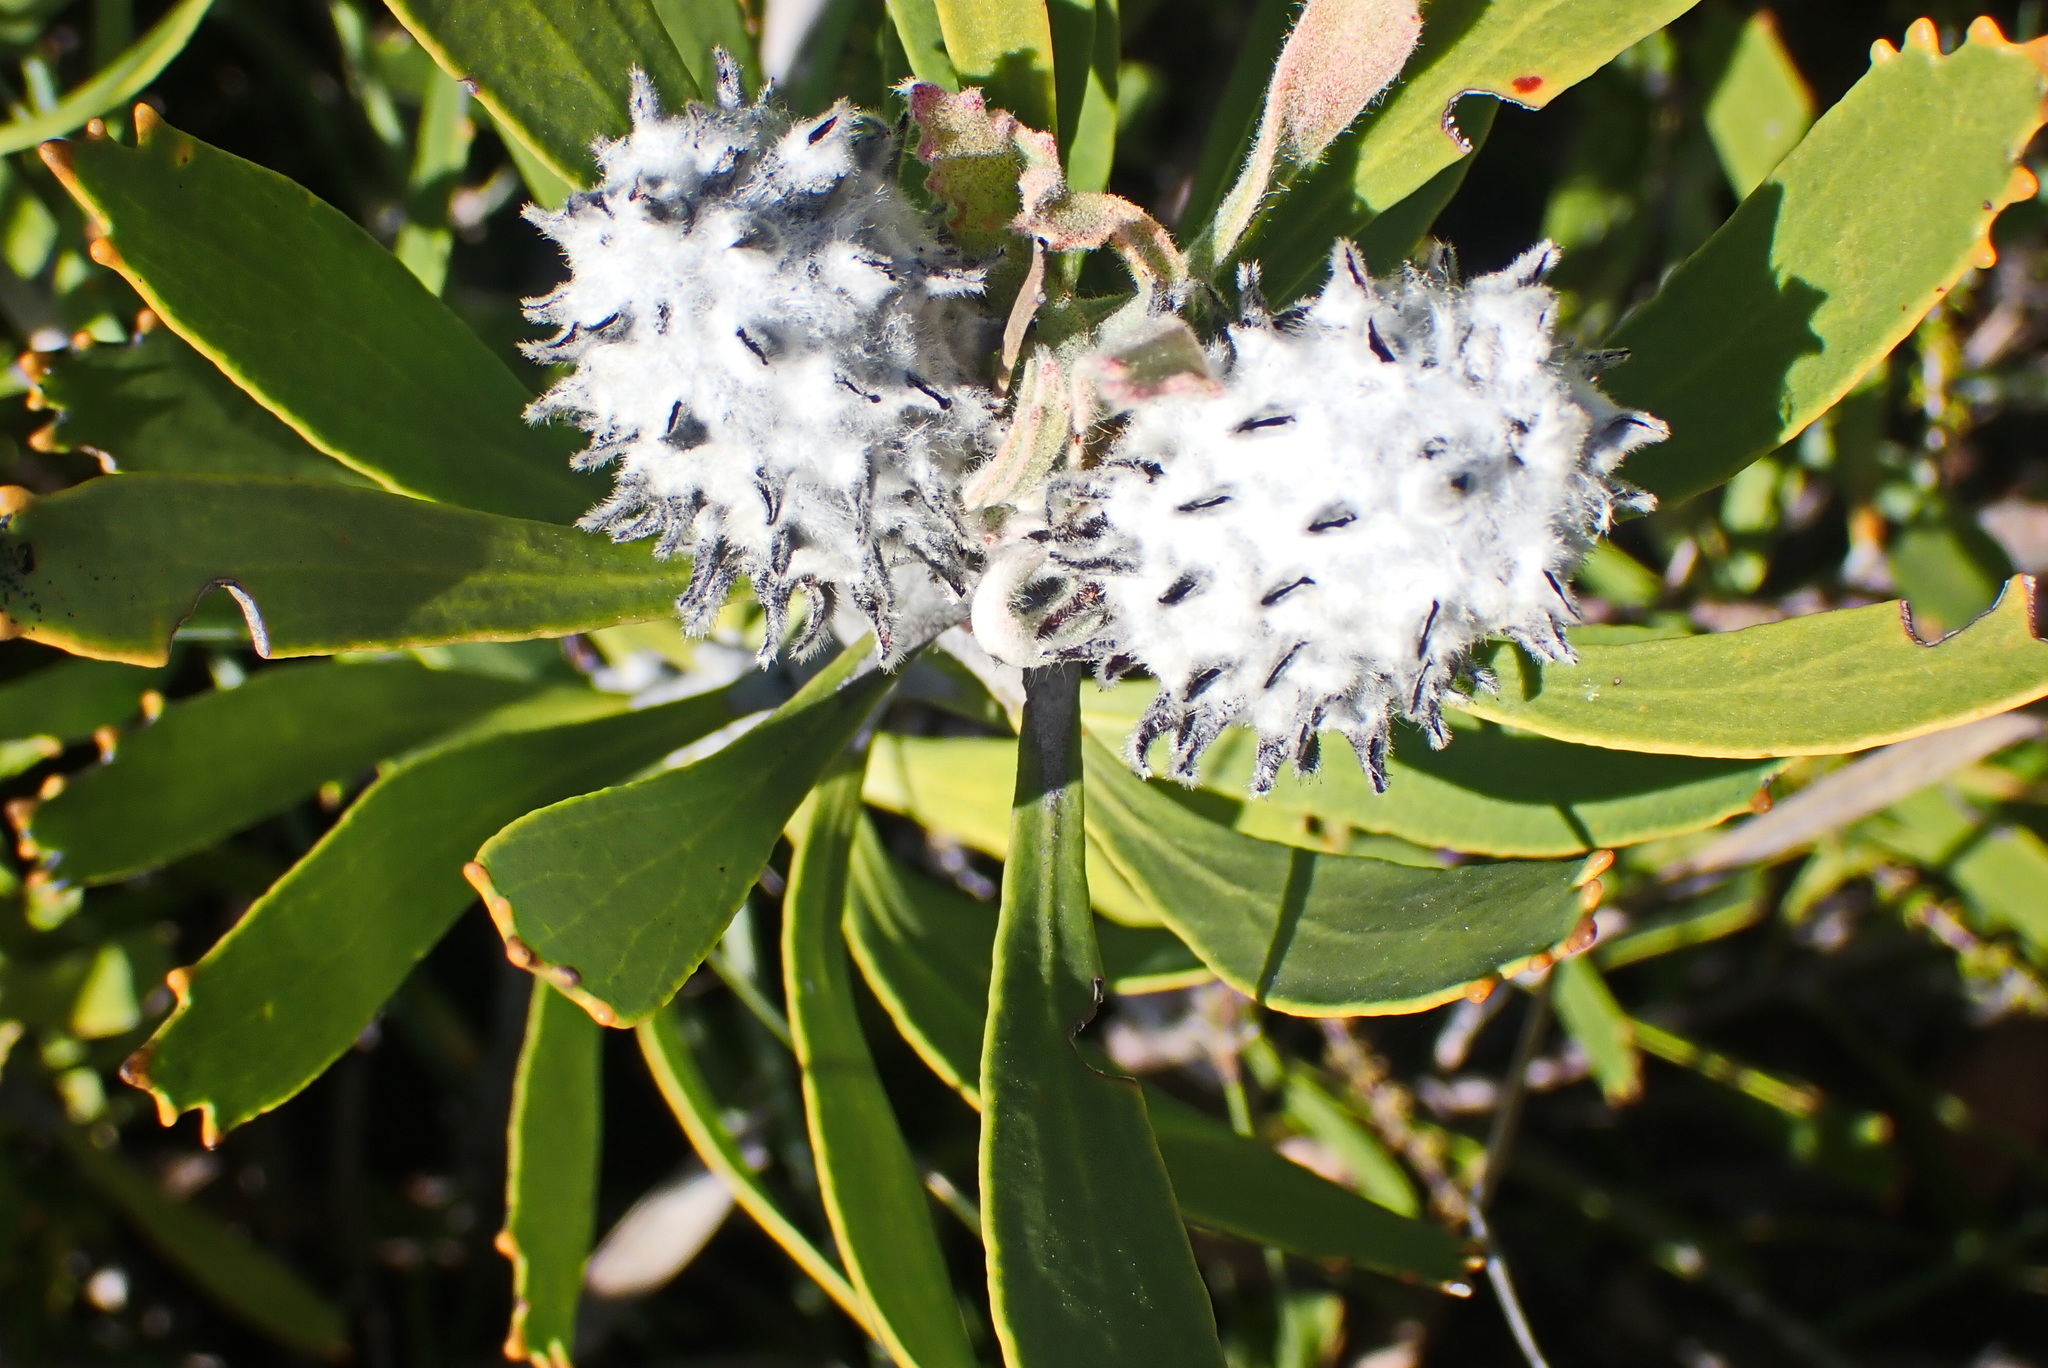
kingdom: Plantae
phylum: Tracheophyta
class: Magnoliopsida
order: Proteales
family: Proteaceae
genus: Leucospermum
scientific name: Leucospermum cuneiforme
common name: Common pincushion
